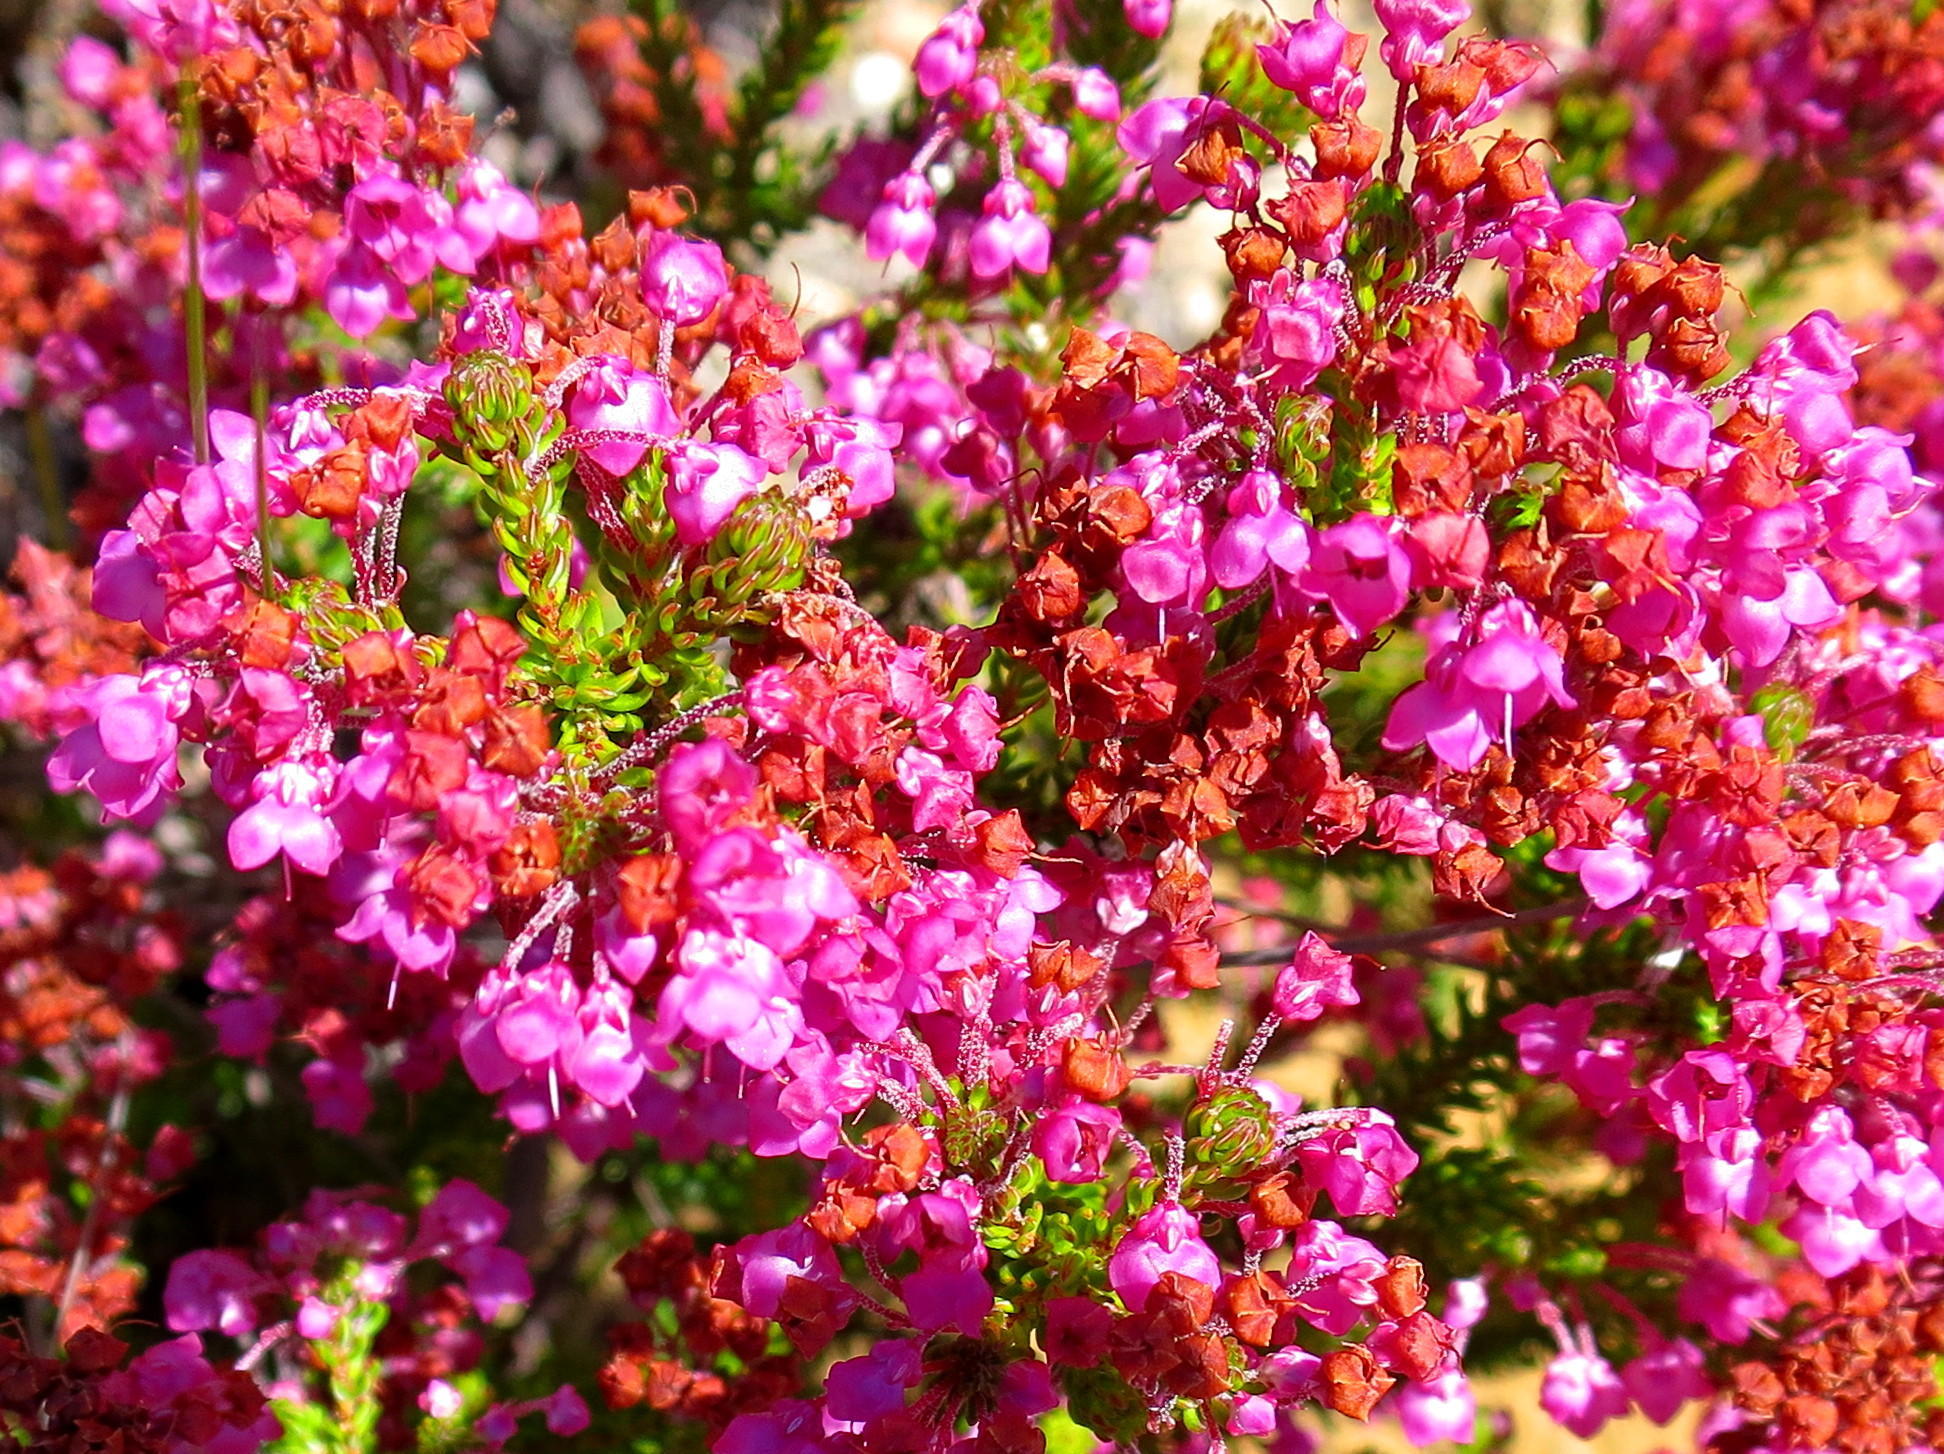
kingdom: Plantae
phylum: Tracheophyta
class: Magnoliopsida
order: Ericales
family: Ericaceae
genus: Erica
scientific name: Erica seriphiifolia
